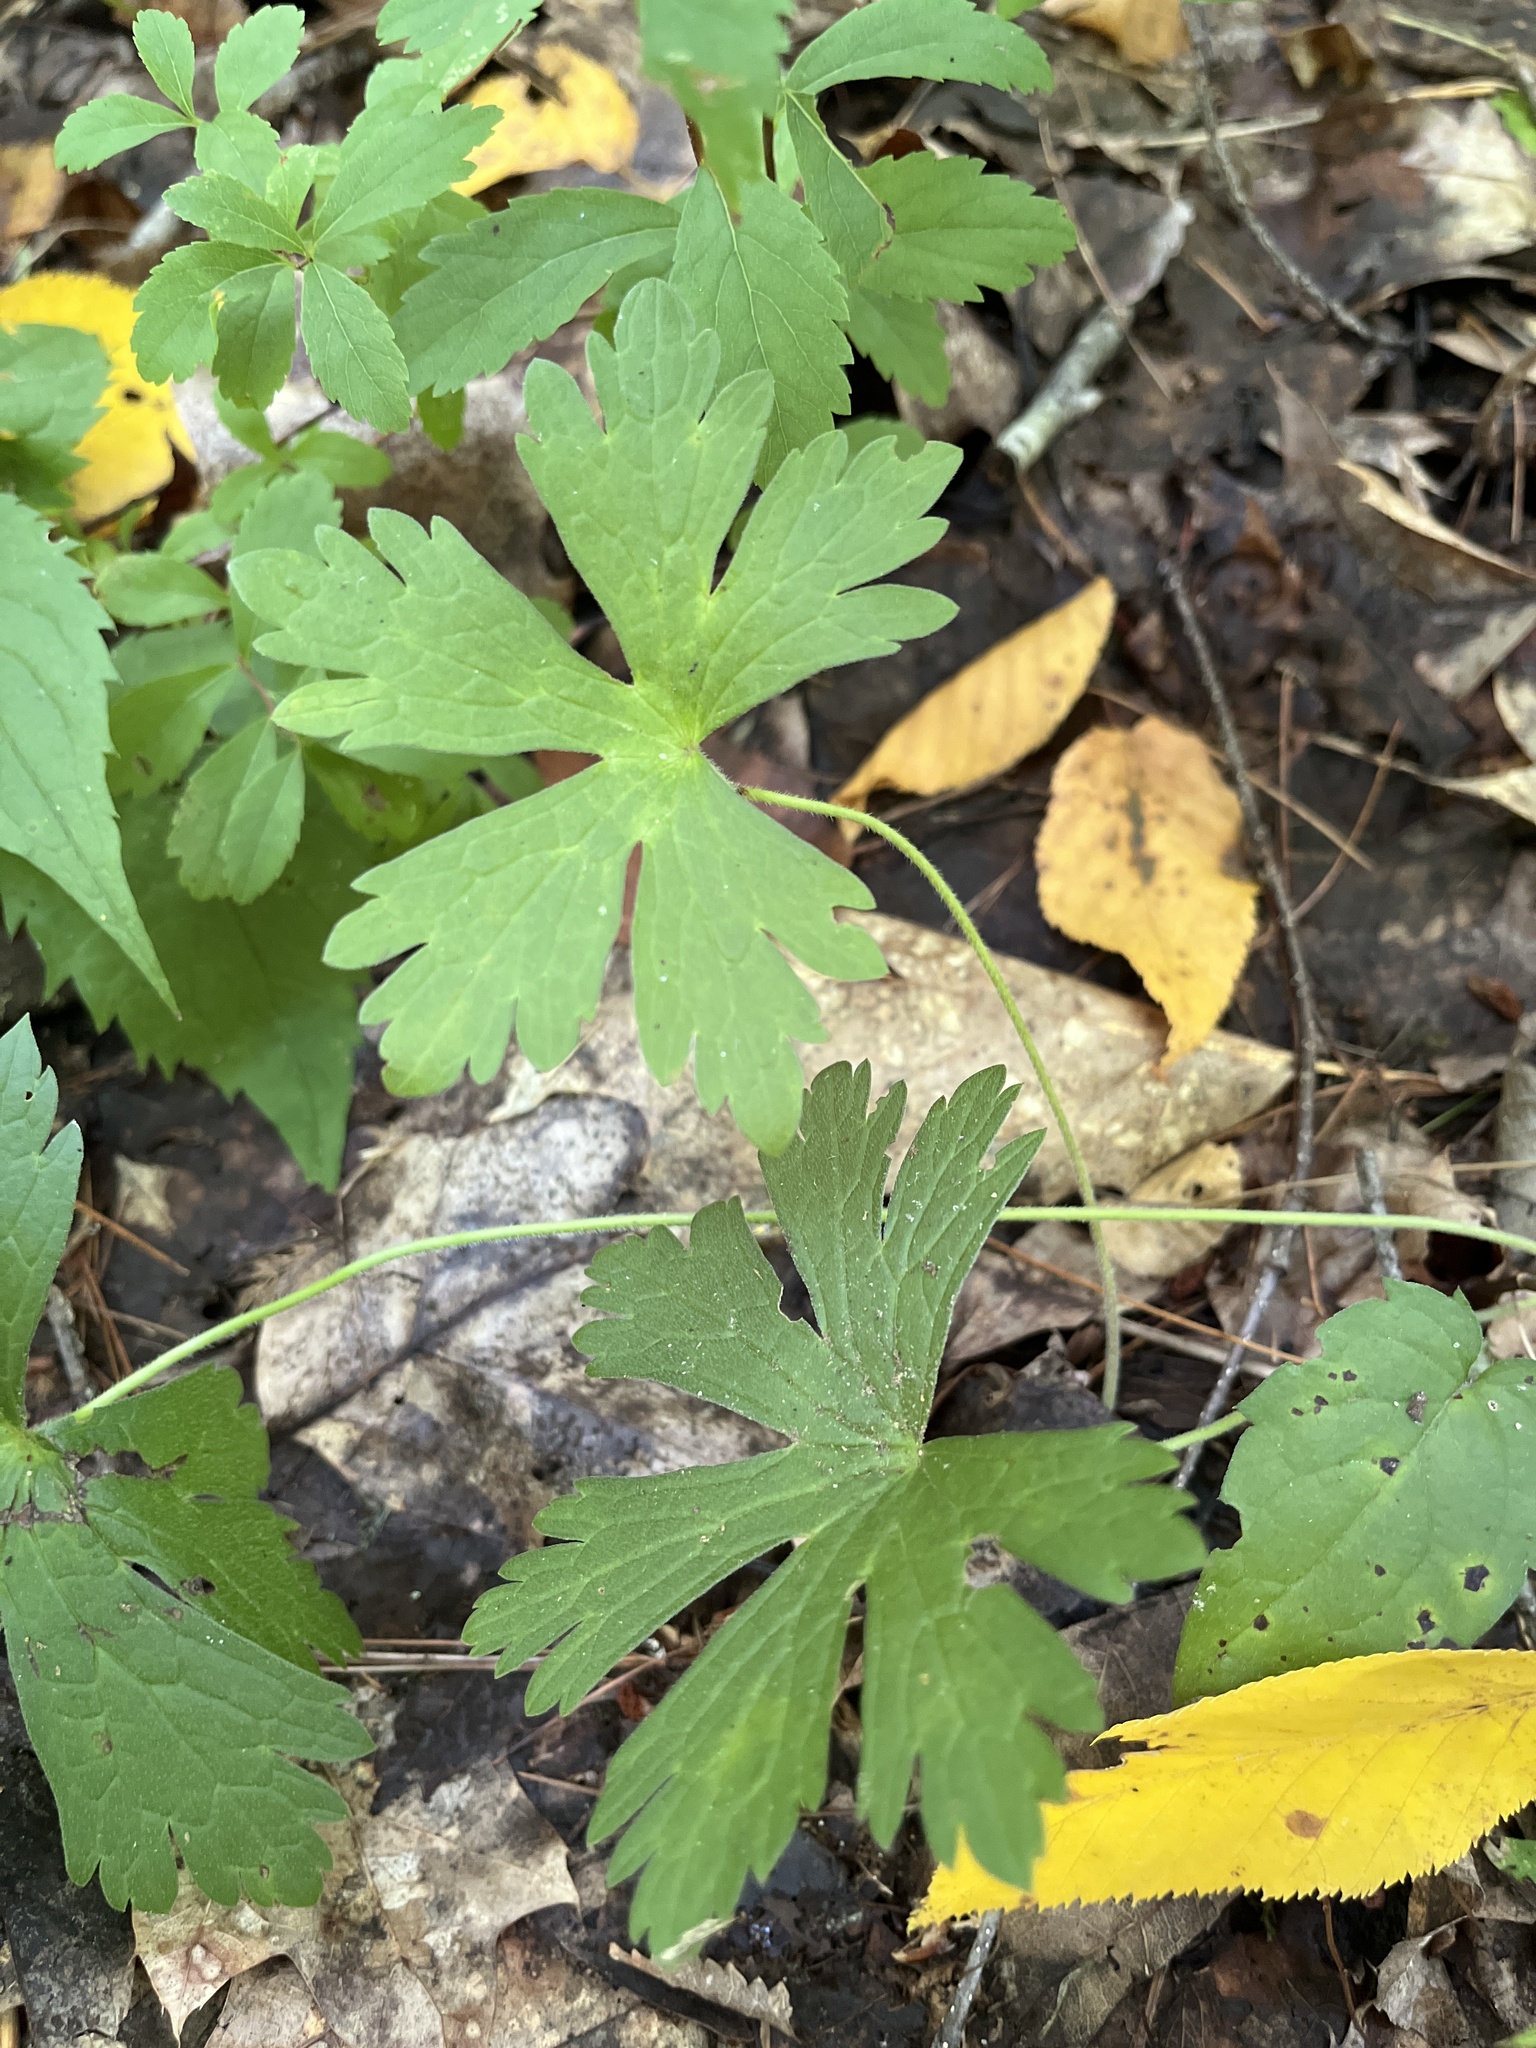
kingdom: Plantae
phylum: Tracheophyta
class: Magnoliopsida
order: Geraniales
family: Geraniaceae
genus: Geranium
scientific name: Geranium maculatum
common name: Spotted geranium
